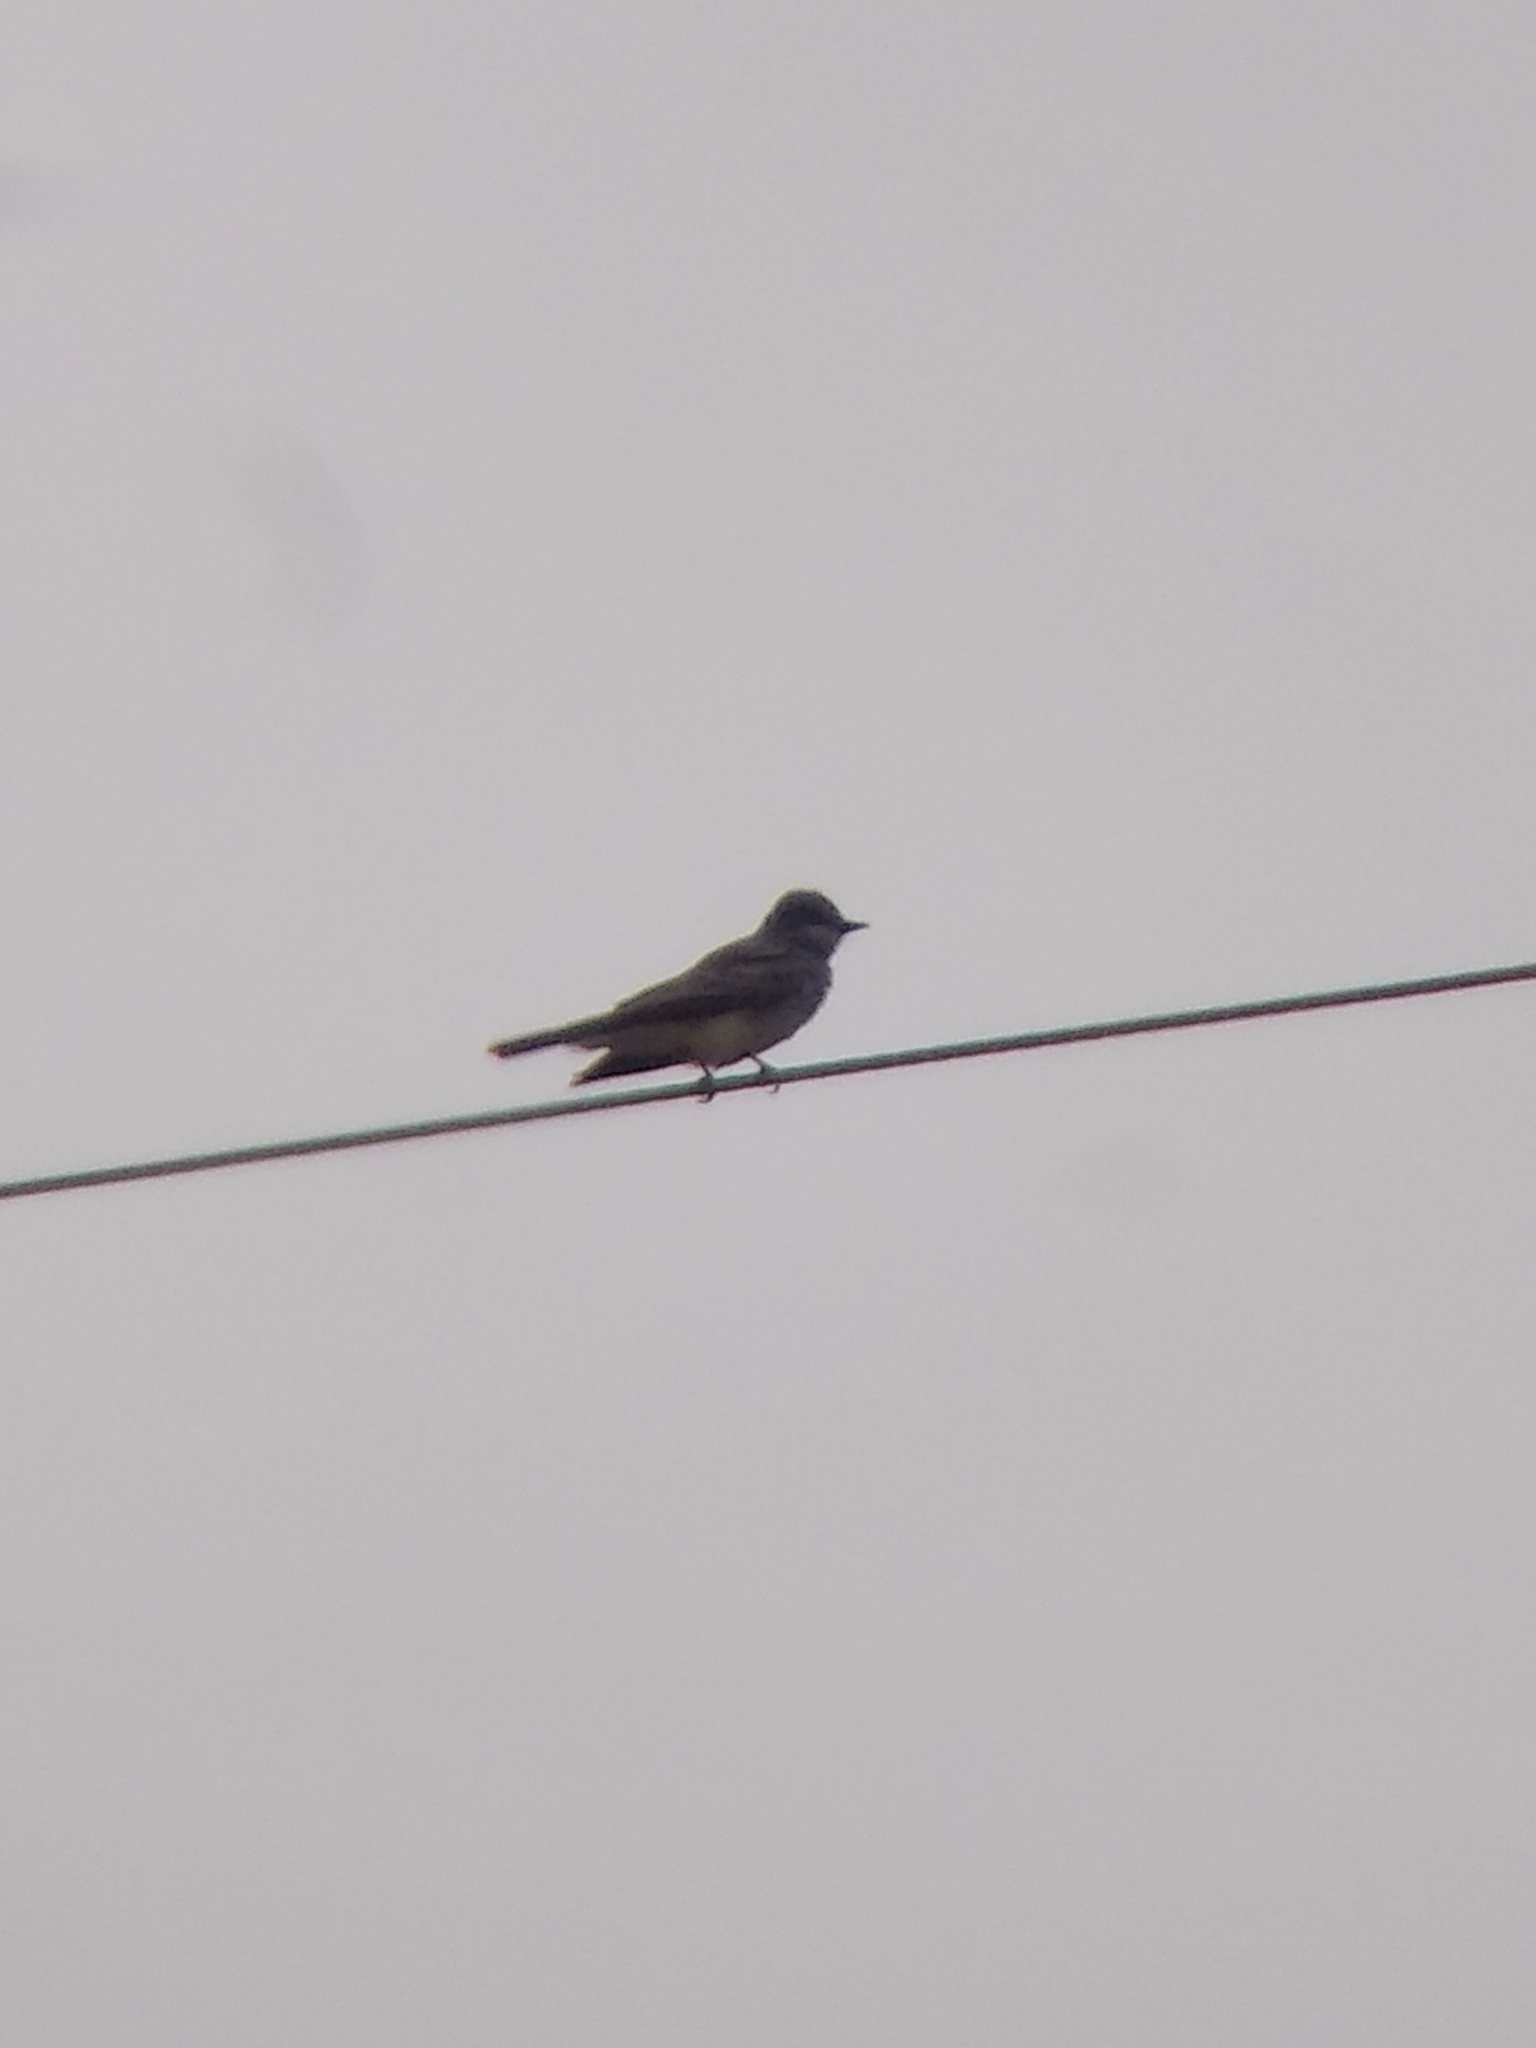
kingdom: Animalia
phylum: Chordata
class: Aves
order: Passeriformes
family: Tyrannidae
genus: Tyrannus
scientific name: Tyrannus
